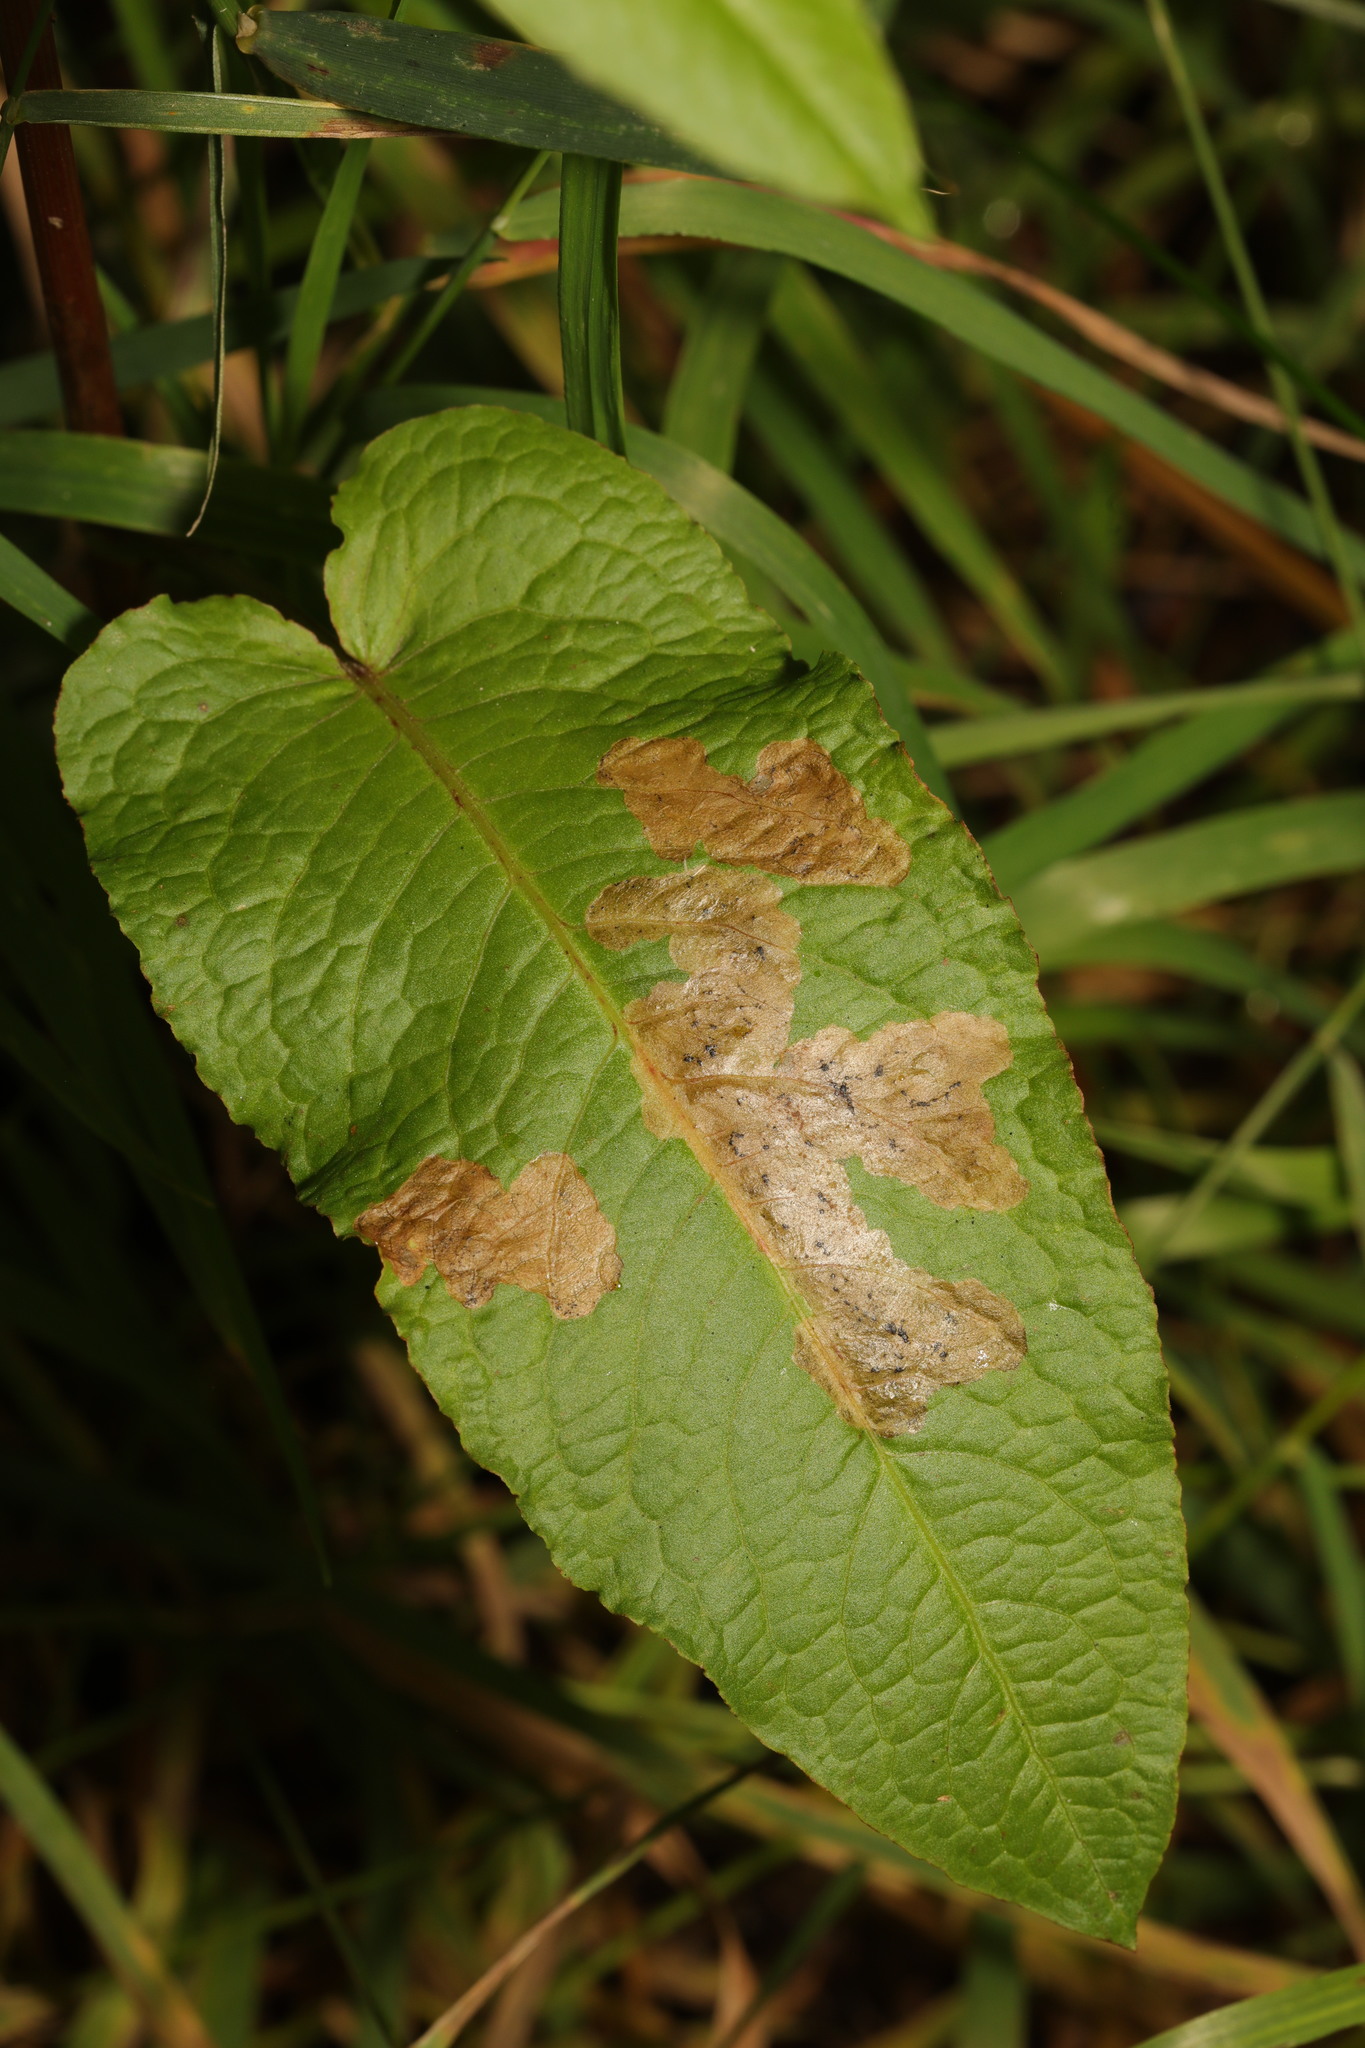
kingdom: Plantae
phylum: Tracheophyta
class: Magnoliopsida
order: Caryophyllales
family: Polygonaceae
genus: Rumex
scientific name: Rumex obtusifolius
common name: Bitter dock
